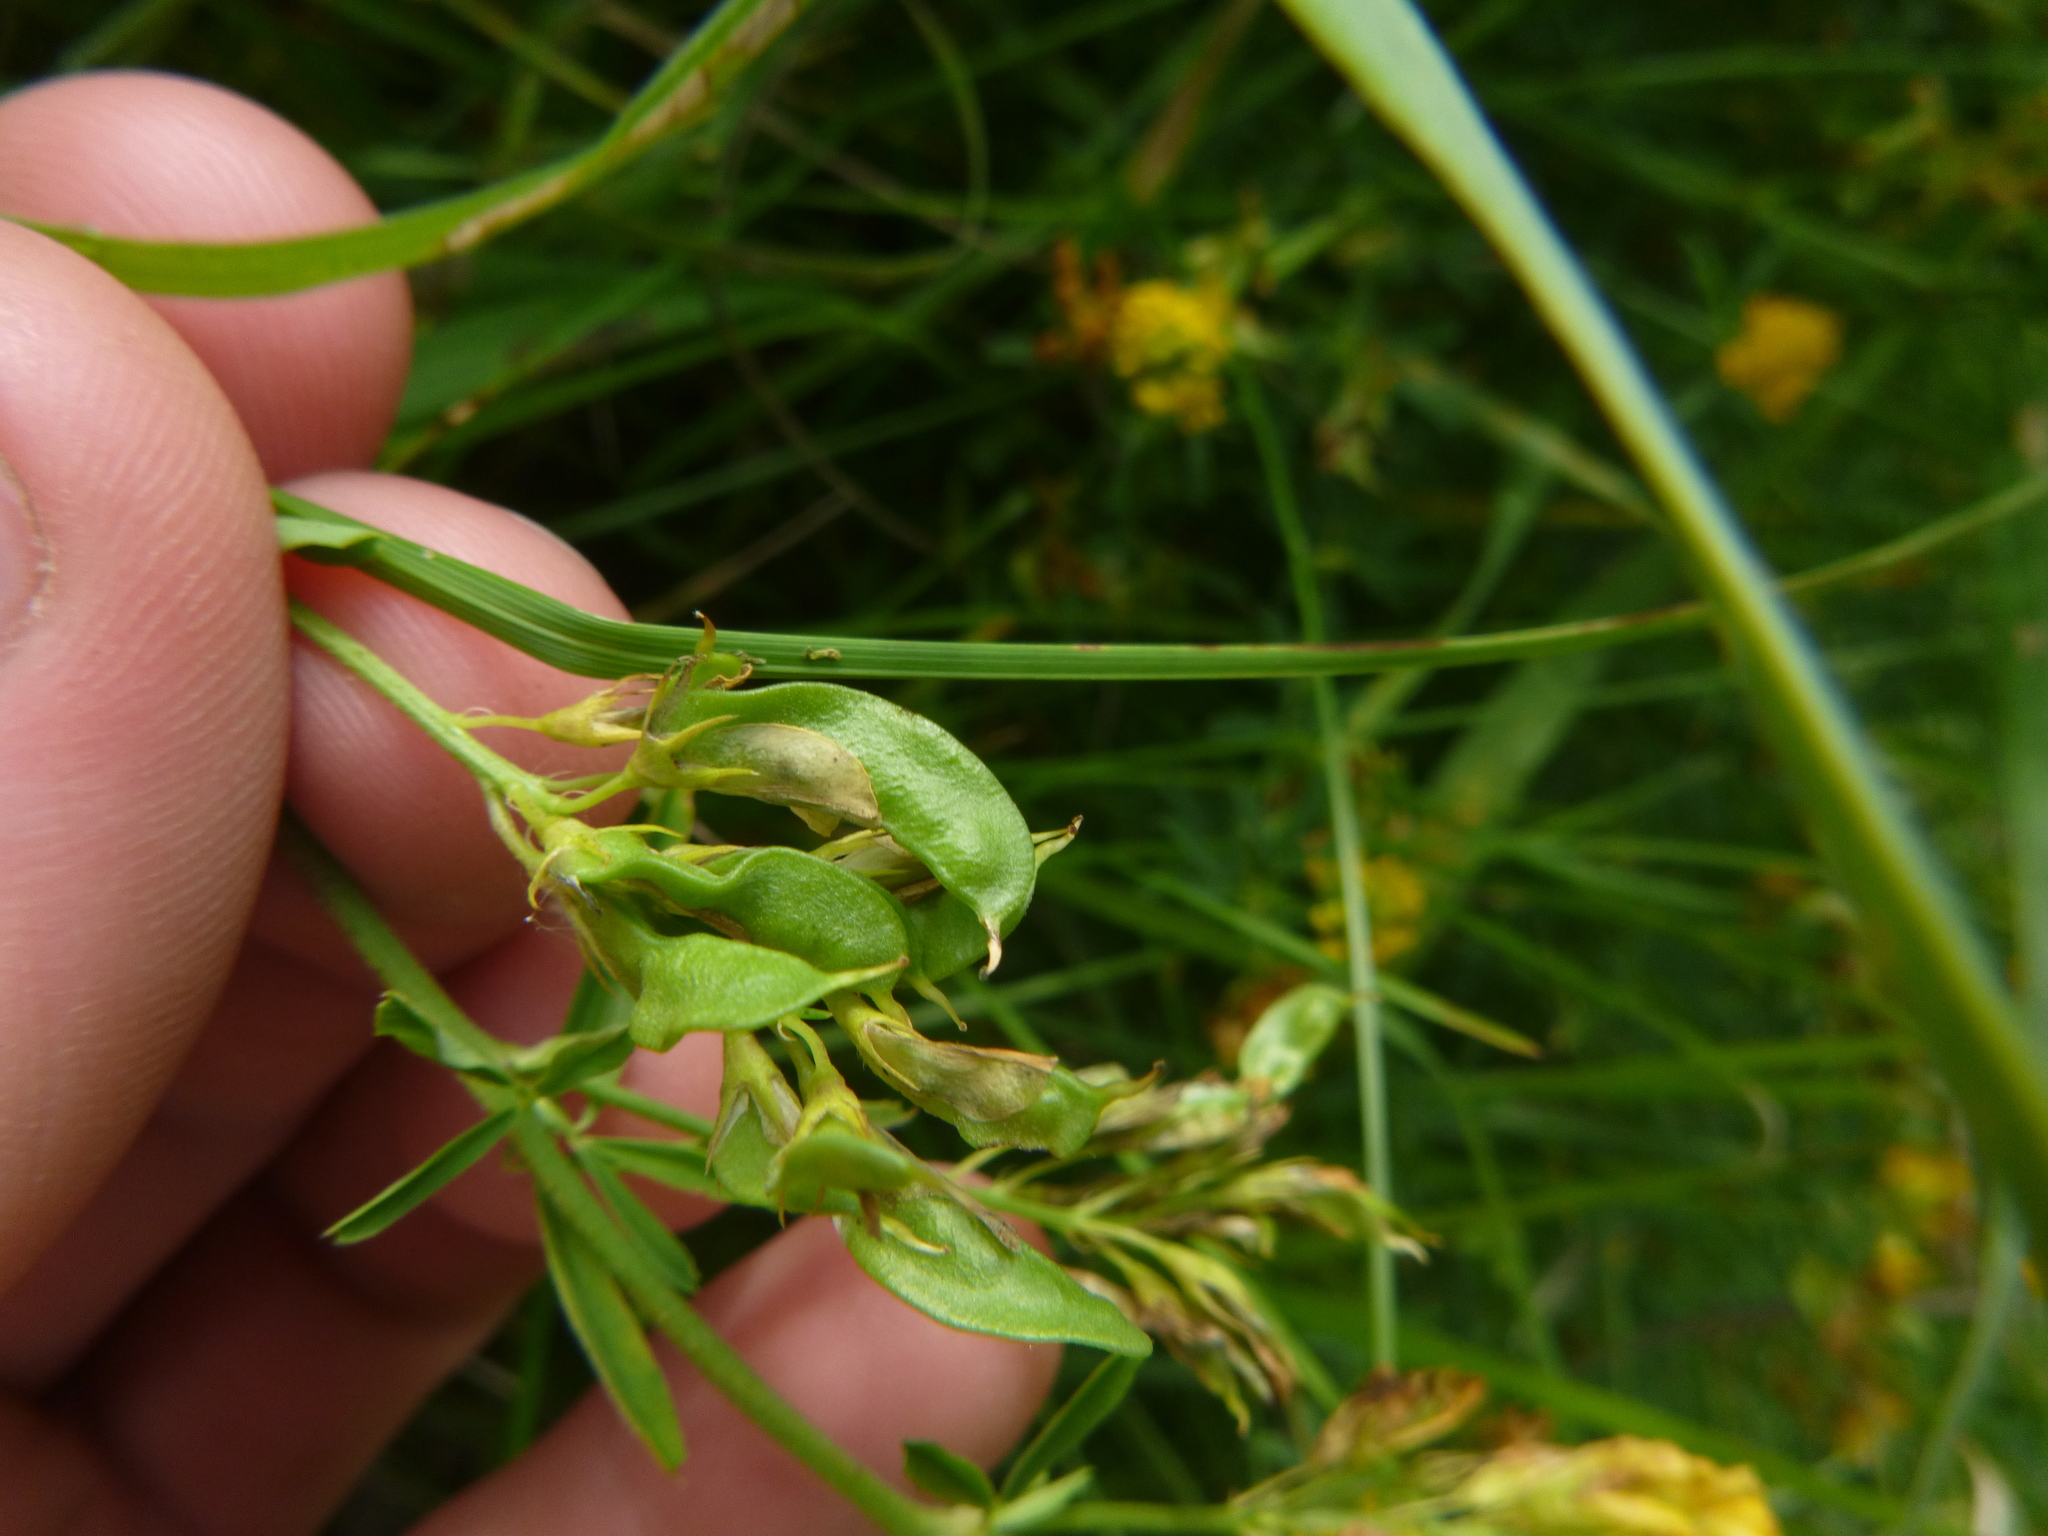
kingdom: Plantae
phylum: Tracheophyta
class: Magnoliopsida
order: Fabales
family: Fabaceae
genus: Medicago
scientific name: Medicago falcata
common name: Sickle medick
